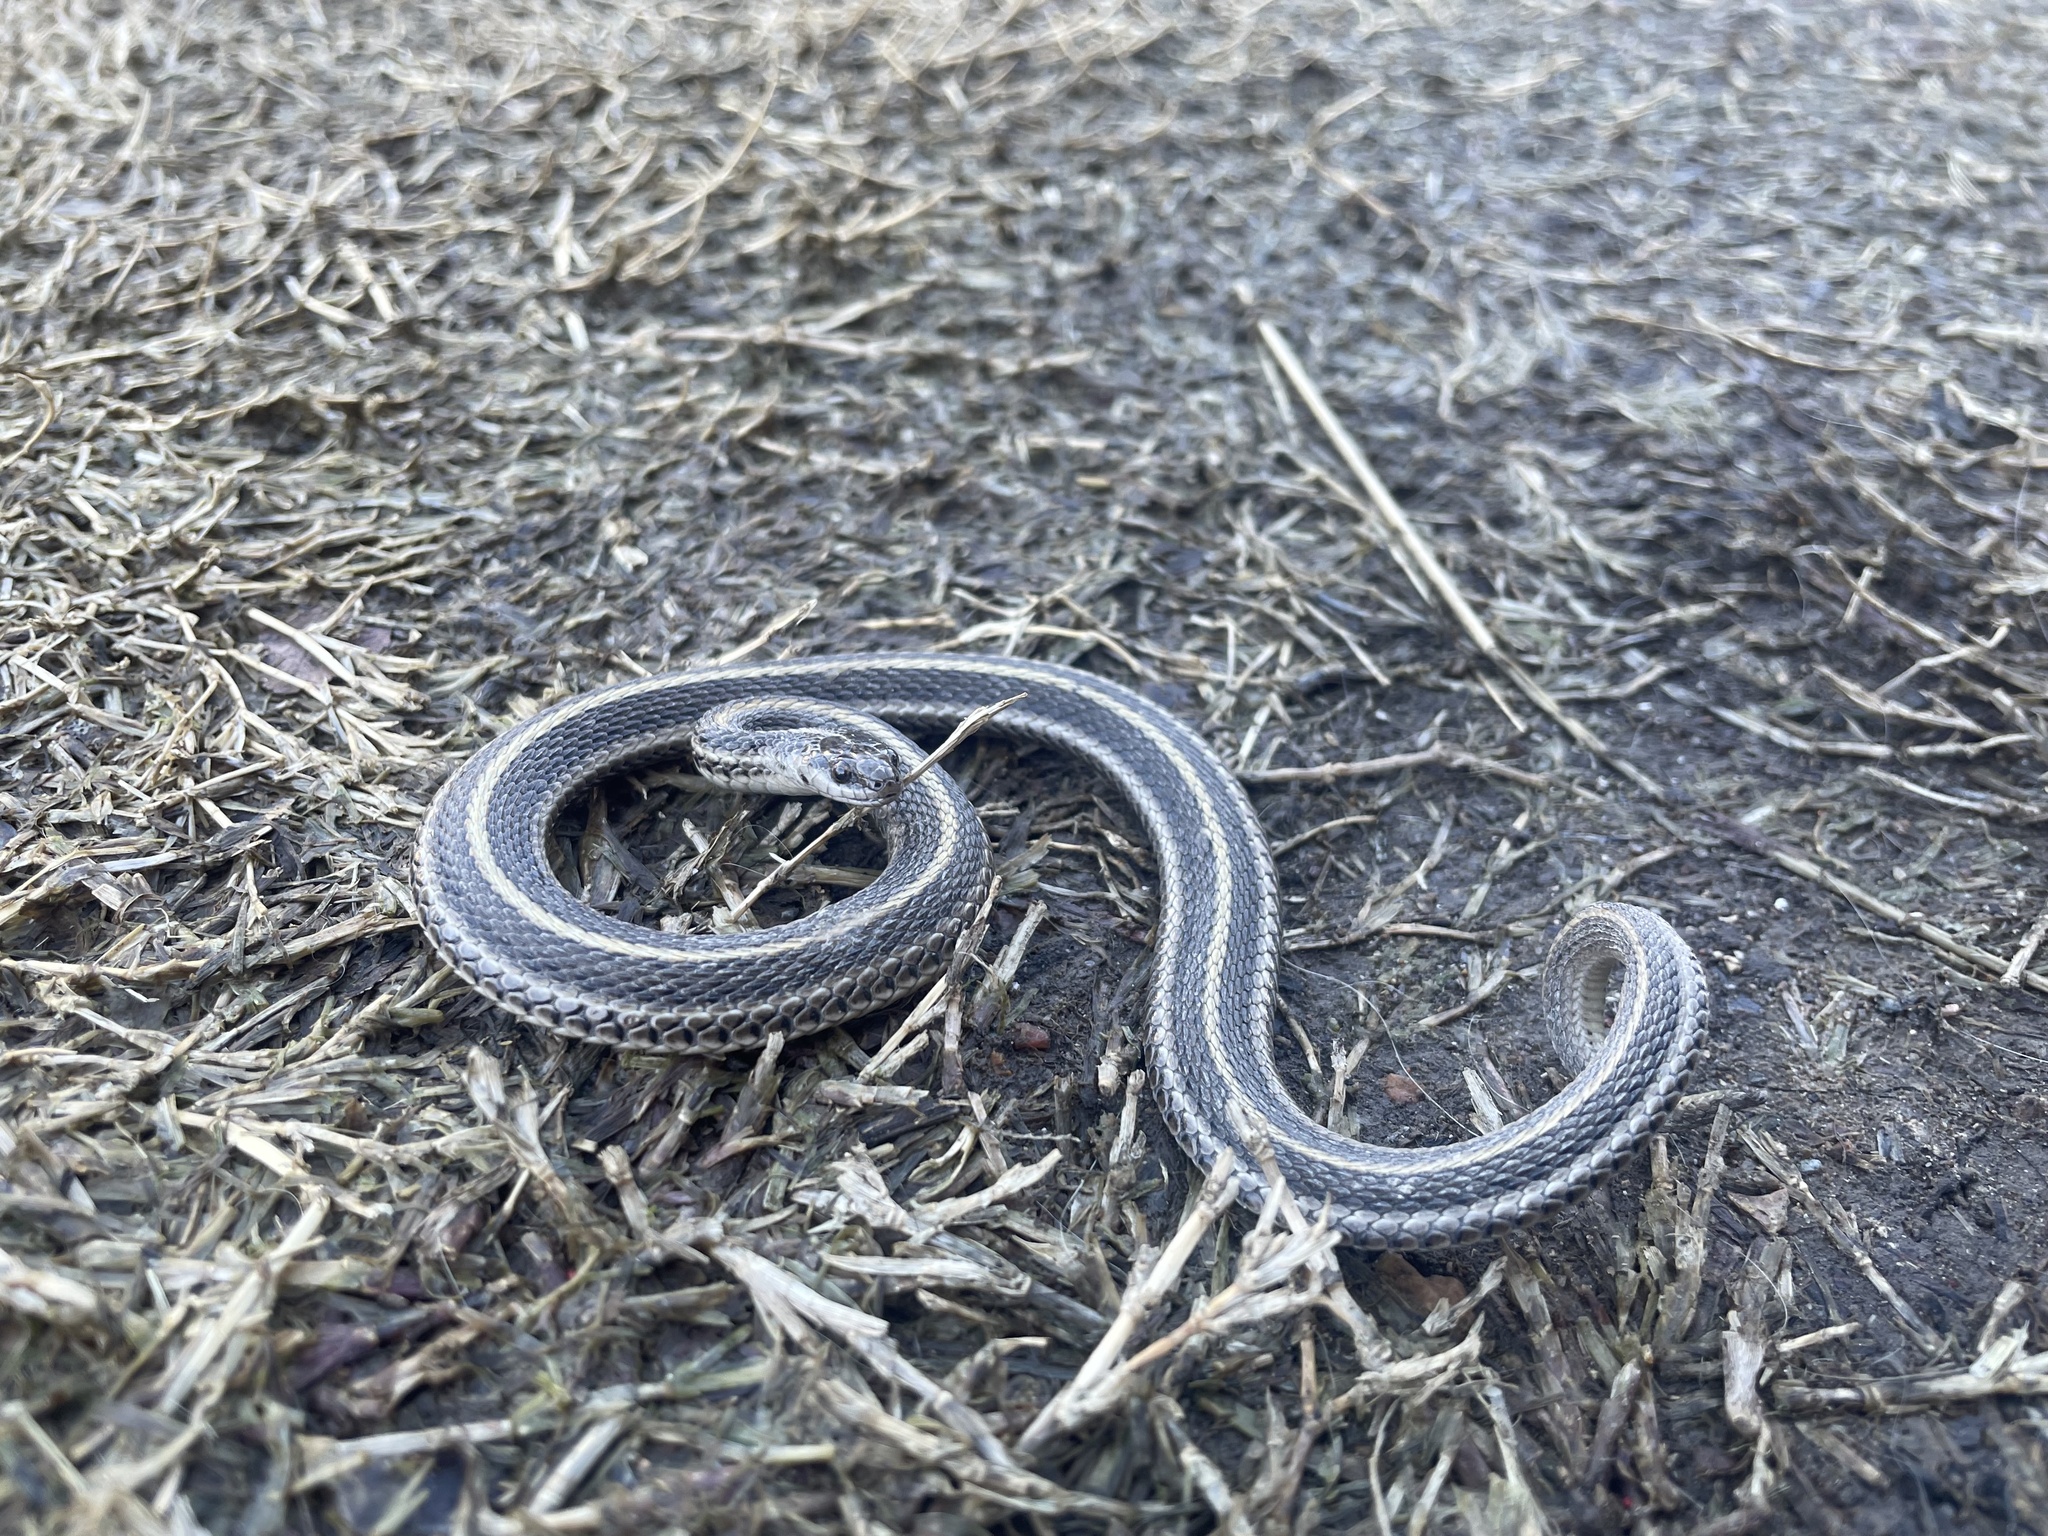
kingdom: Animalia
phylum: Chordata
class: Squamata
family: Colubridae
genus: Tropidoclonion
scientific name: Tropidoclonion lineatum
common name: Lined snake
